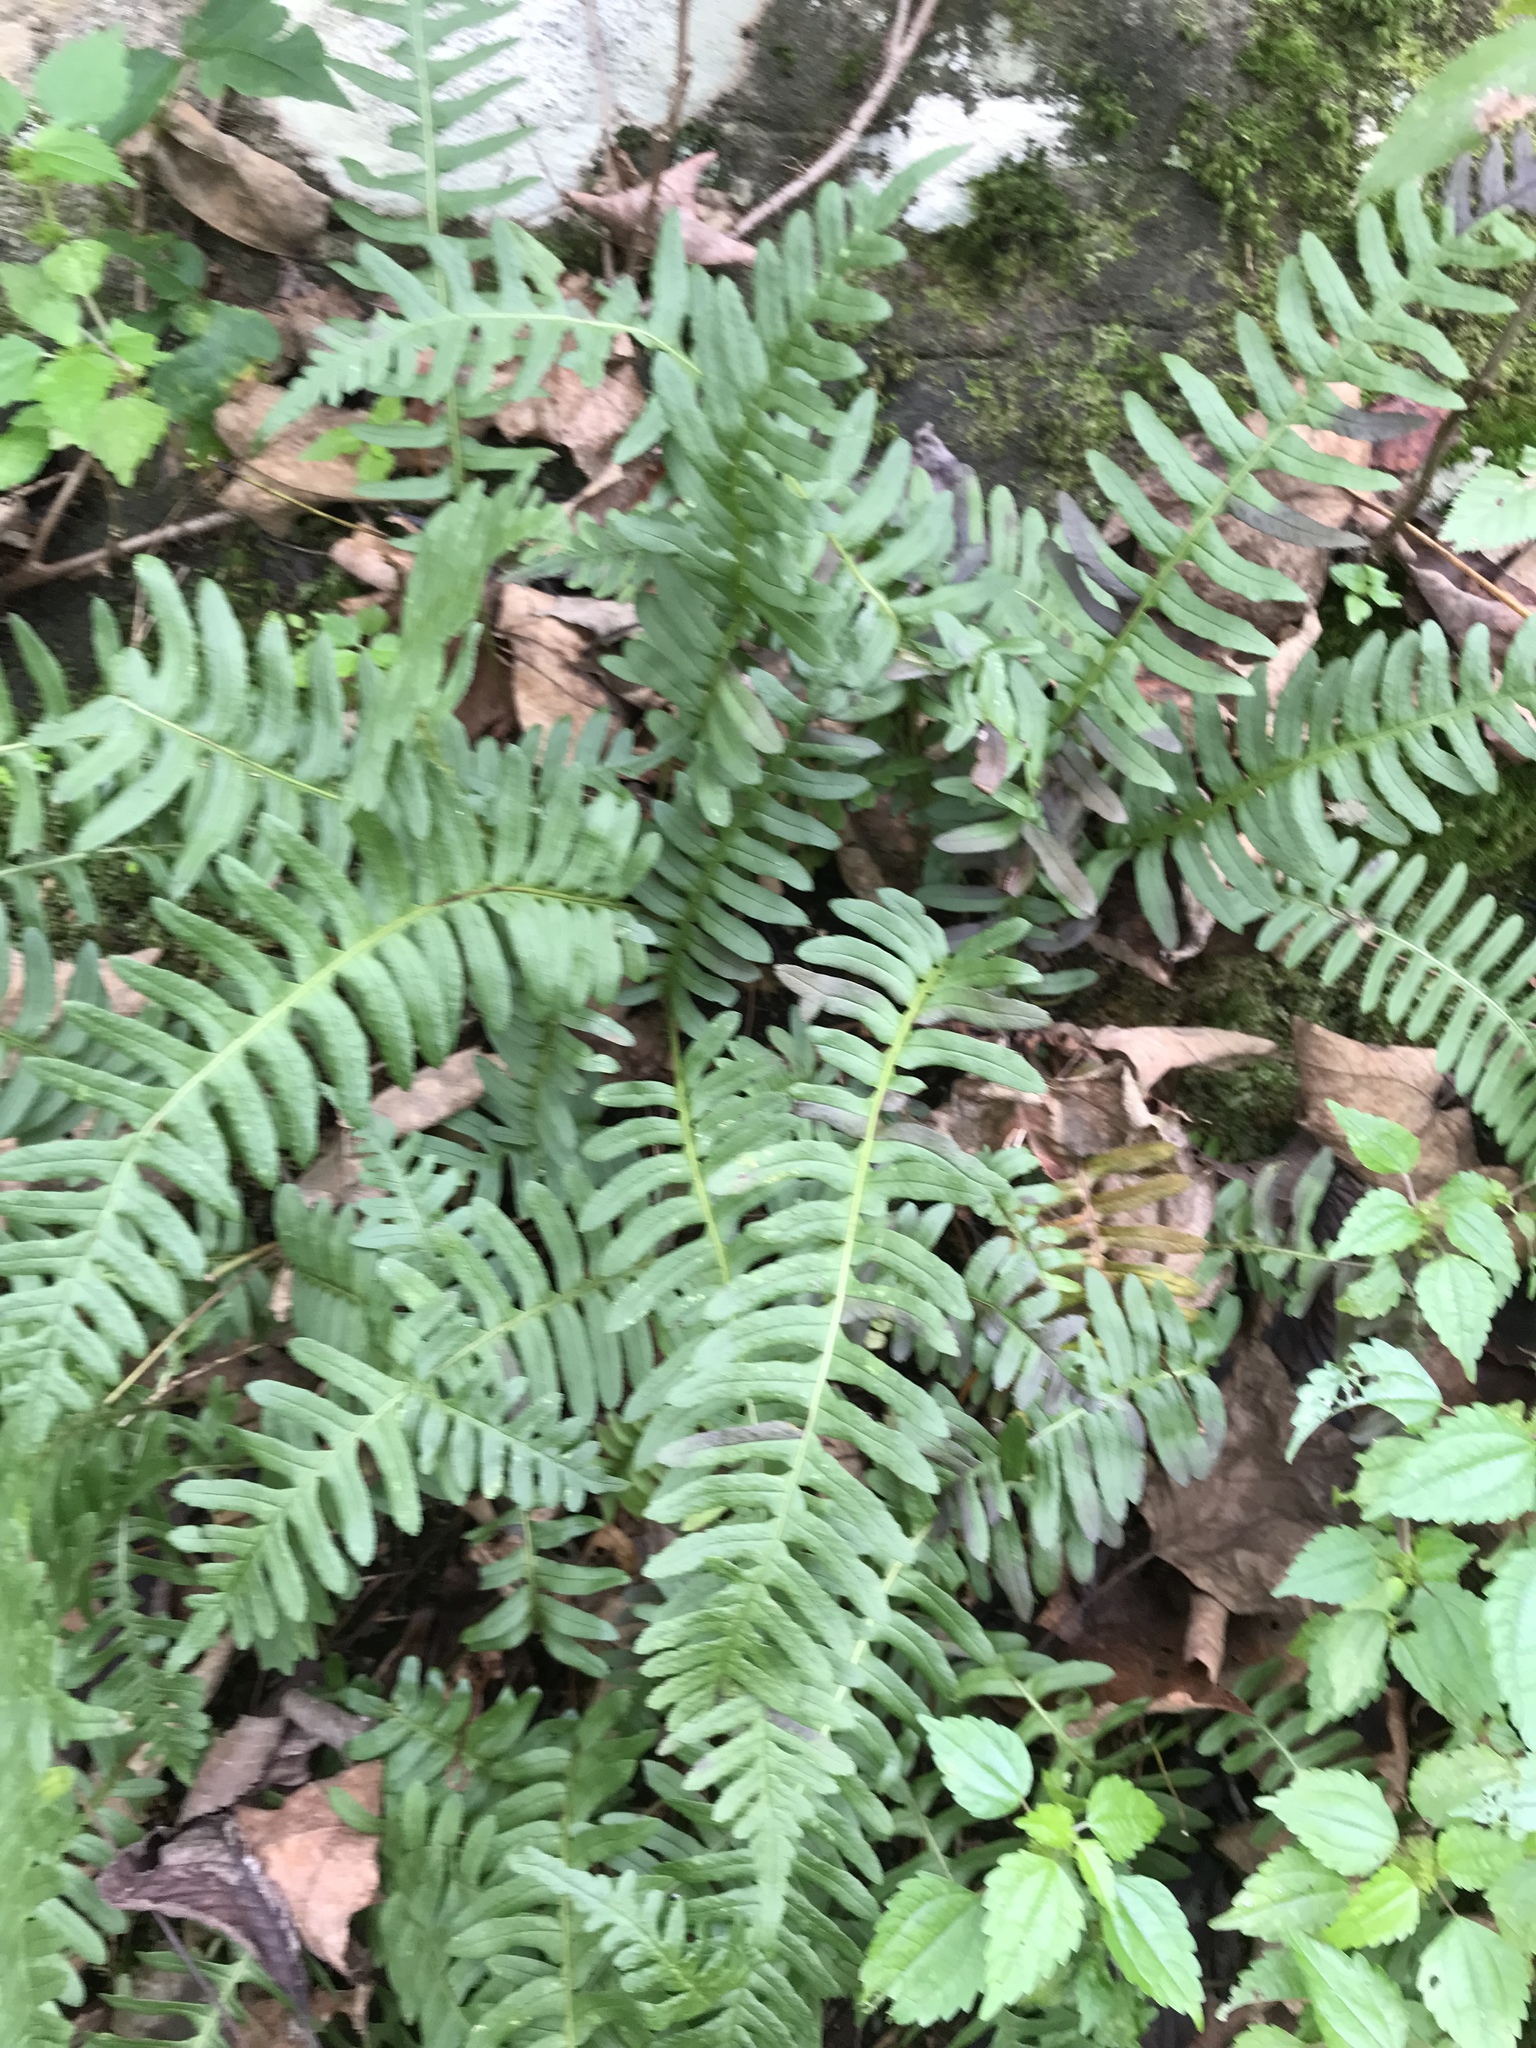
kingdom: Plantae
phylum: Tracheophyta
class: Polypodiopsida
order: Polypodiales
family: Polypodiaceae
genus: Polypodium
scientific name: Polypodium virginianum
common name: American wall fern
